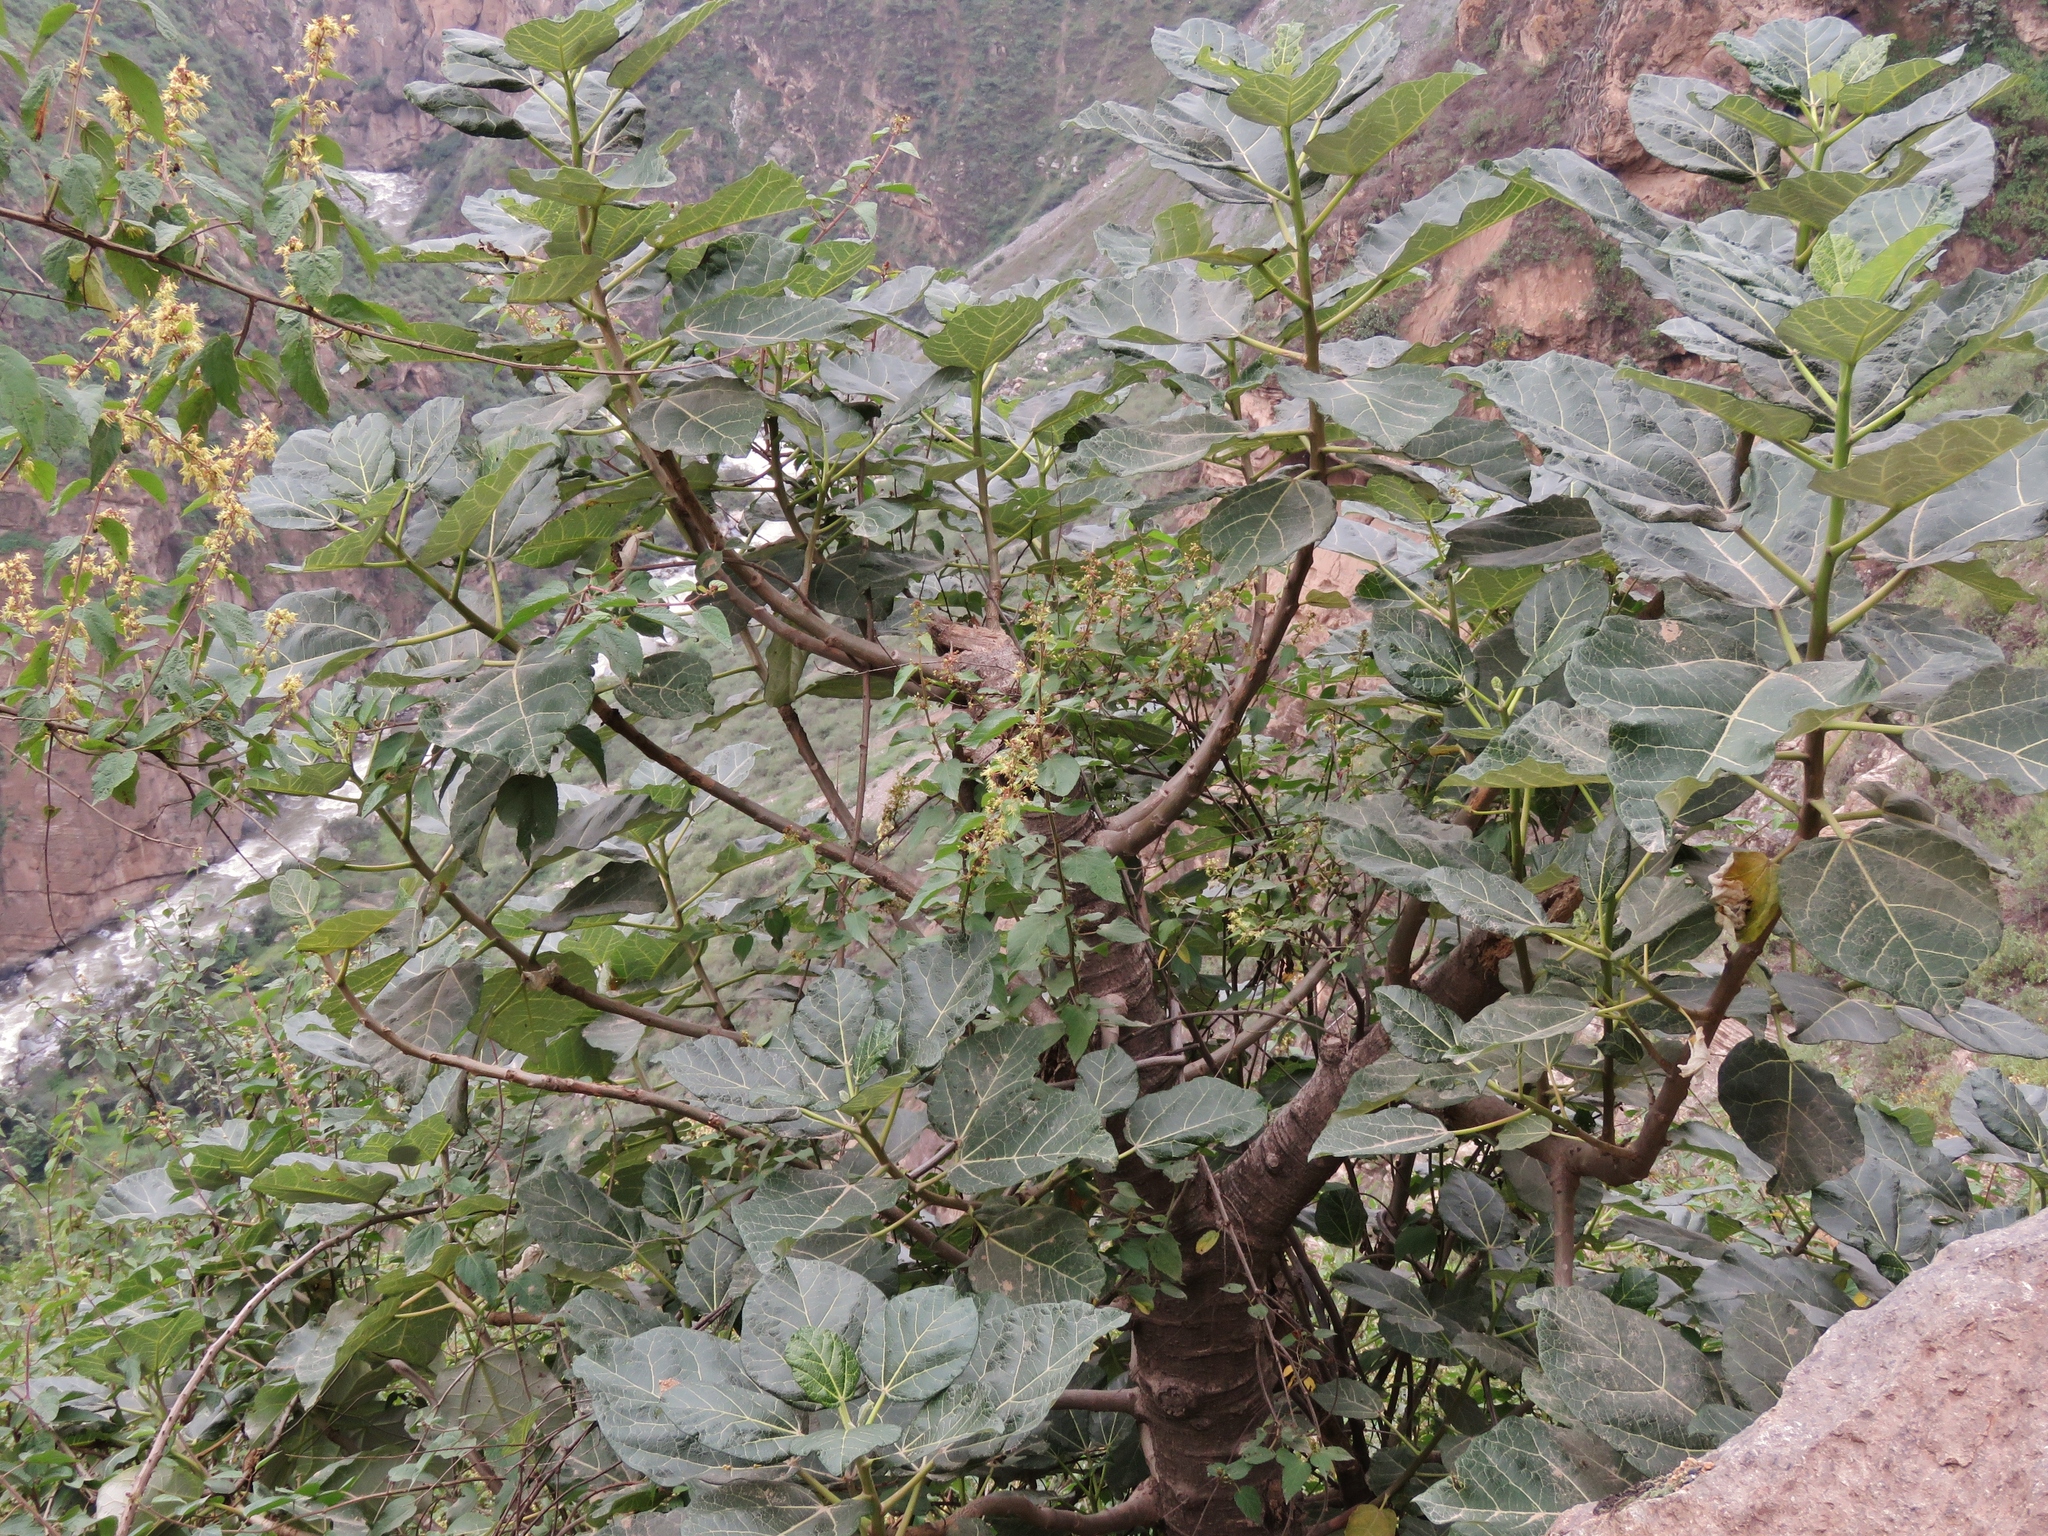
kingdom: Plantae
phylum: Tracheophyta
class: Magnoliopsida
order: Brassicales
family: Caricaceae
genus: Vasconcellea
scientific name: Vasconcellea candicans
